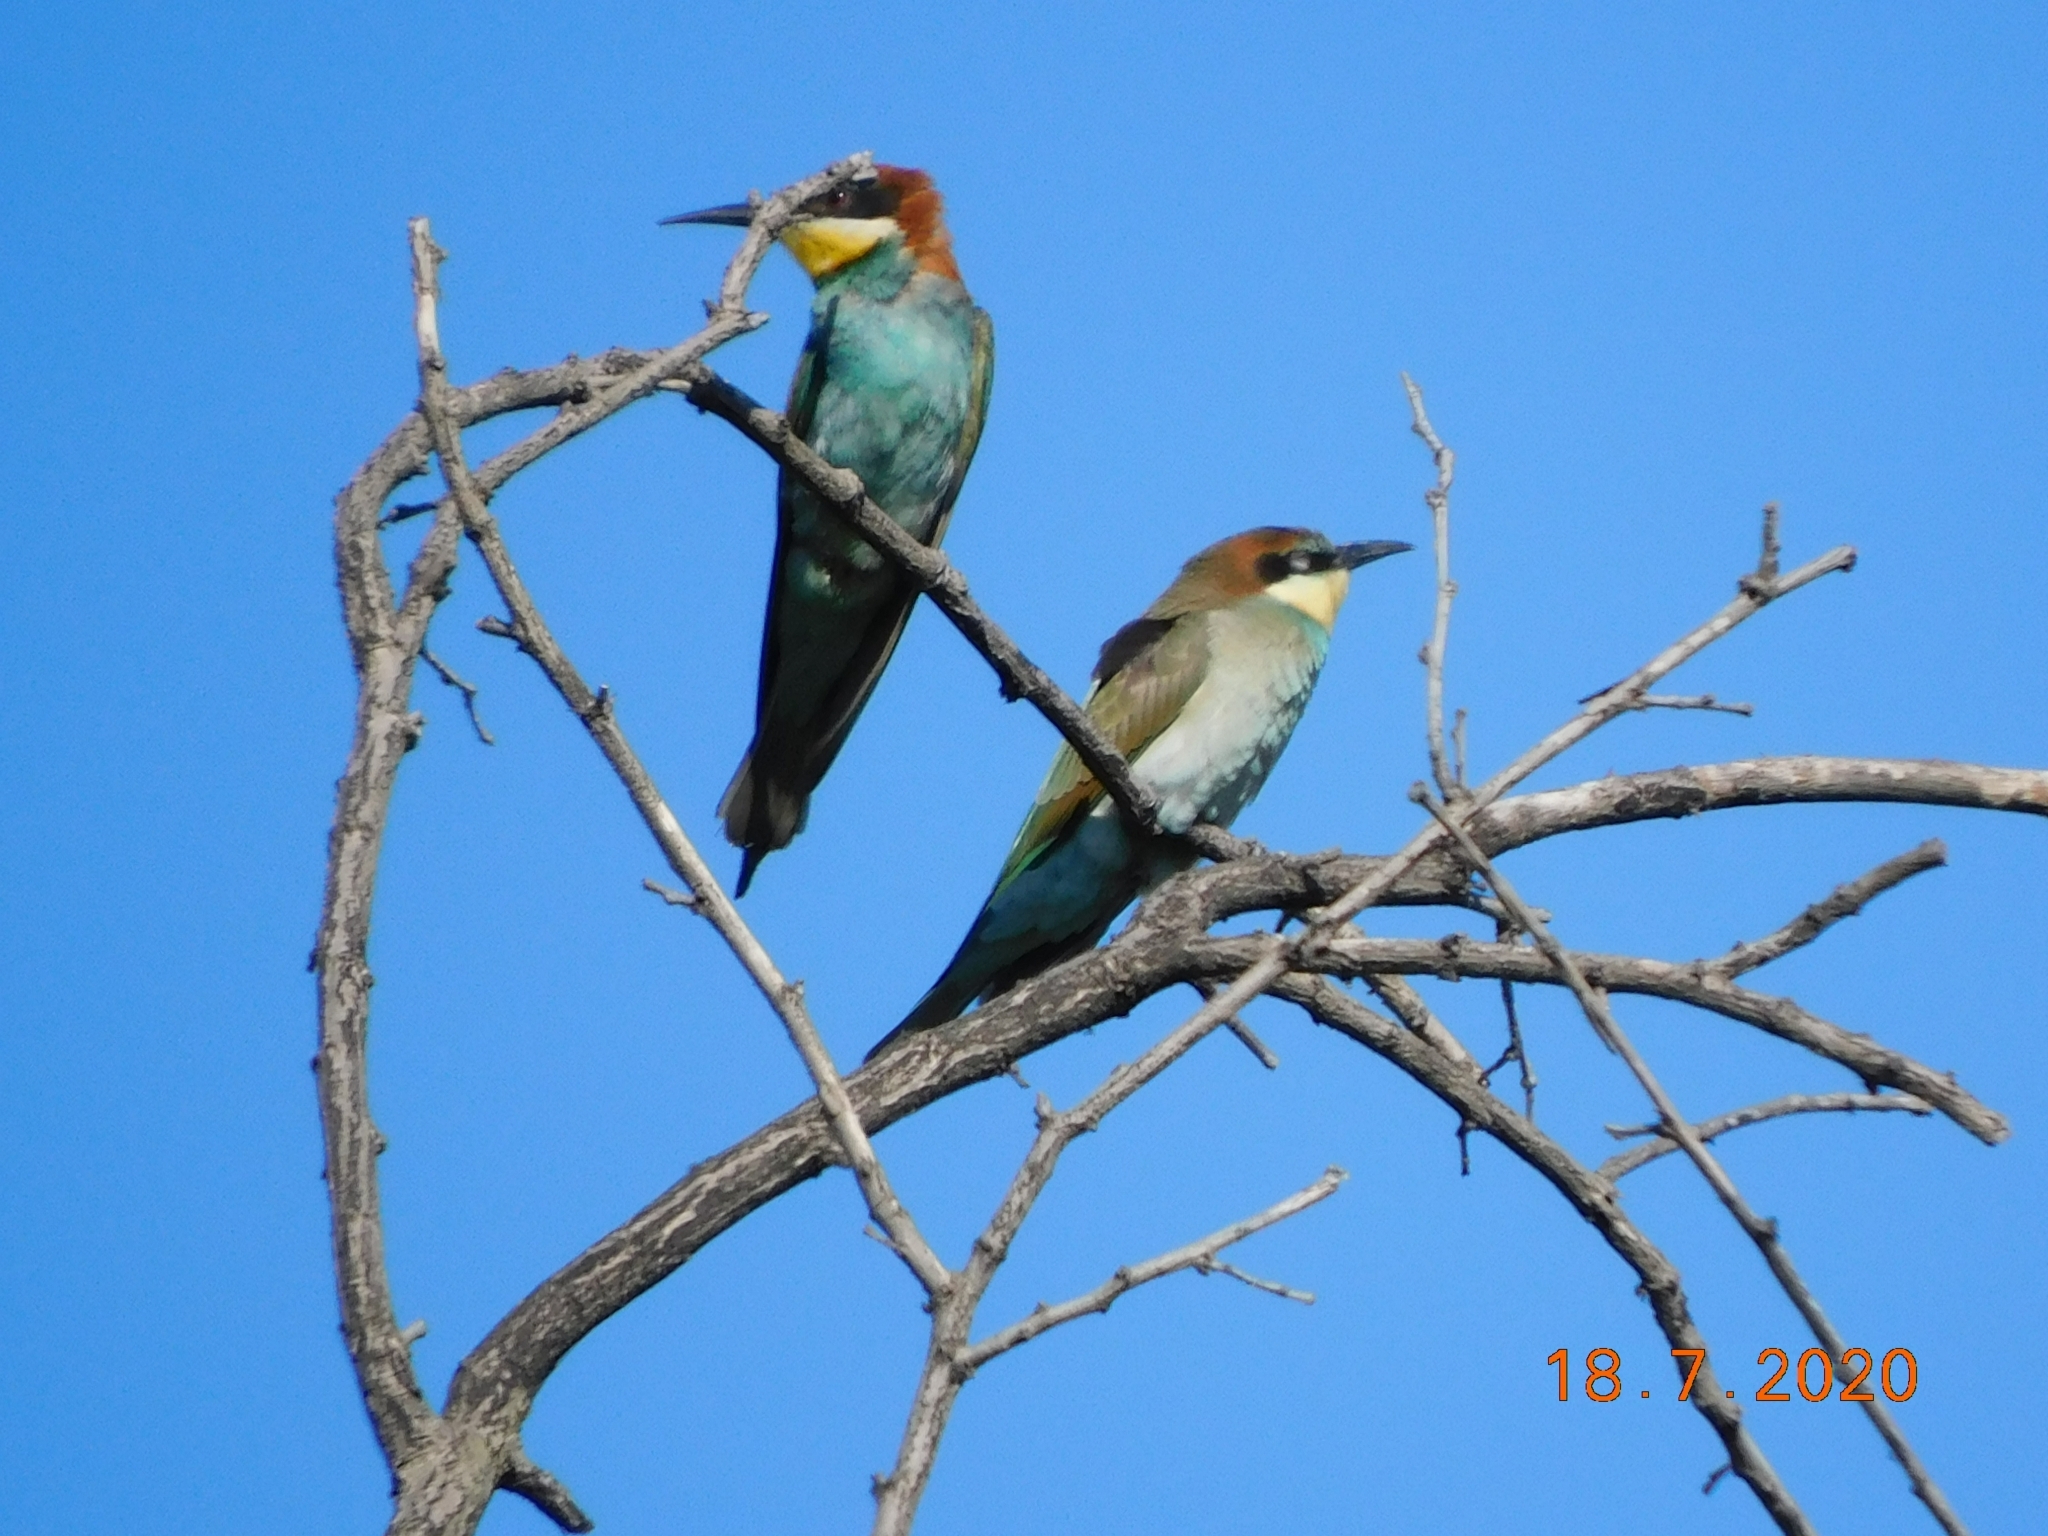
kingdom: Animalia
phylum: Chordata
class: Aves
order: Coraciiformes
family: Meropidae
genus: Merops
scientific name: Merops apiaster
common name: European bee-eater
